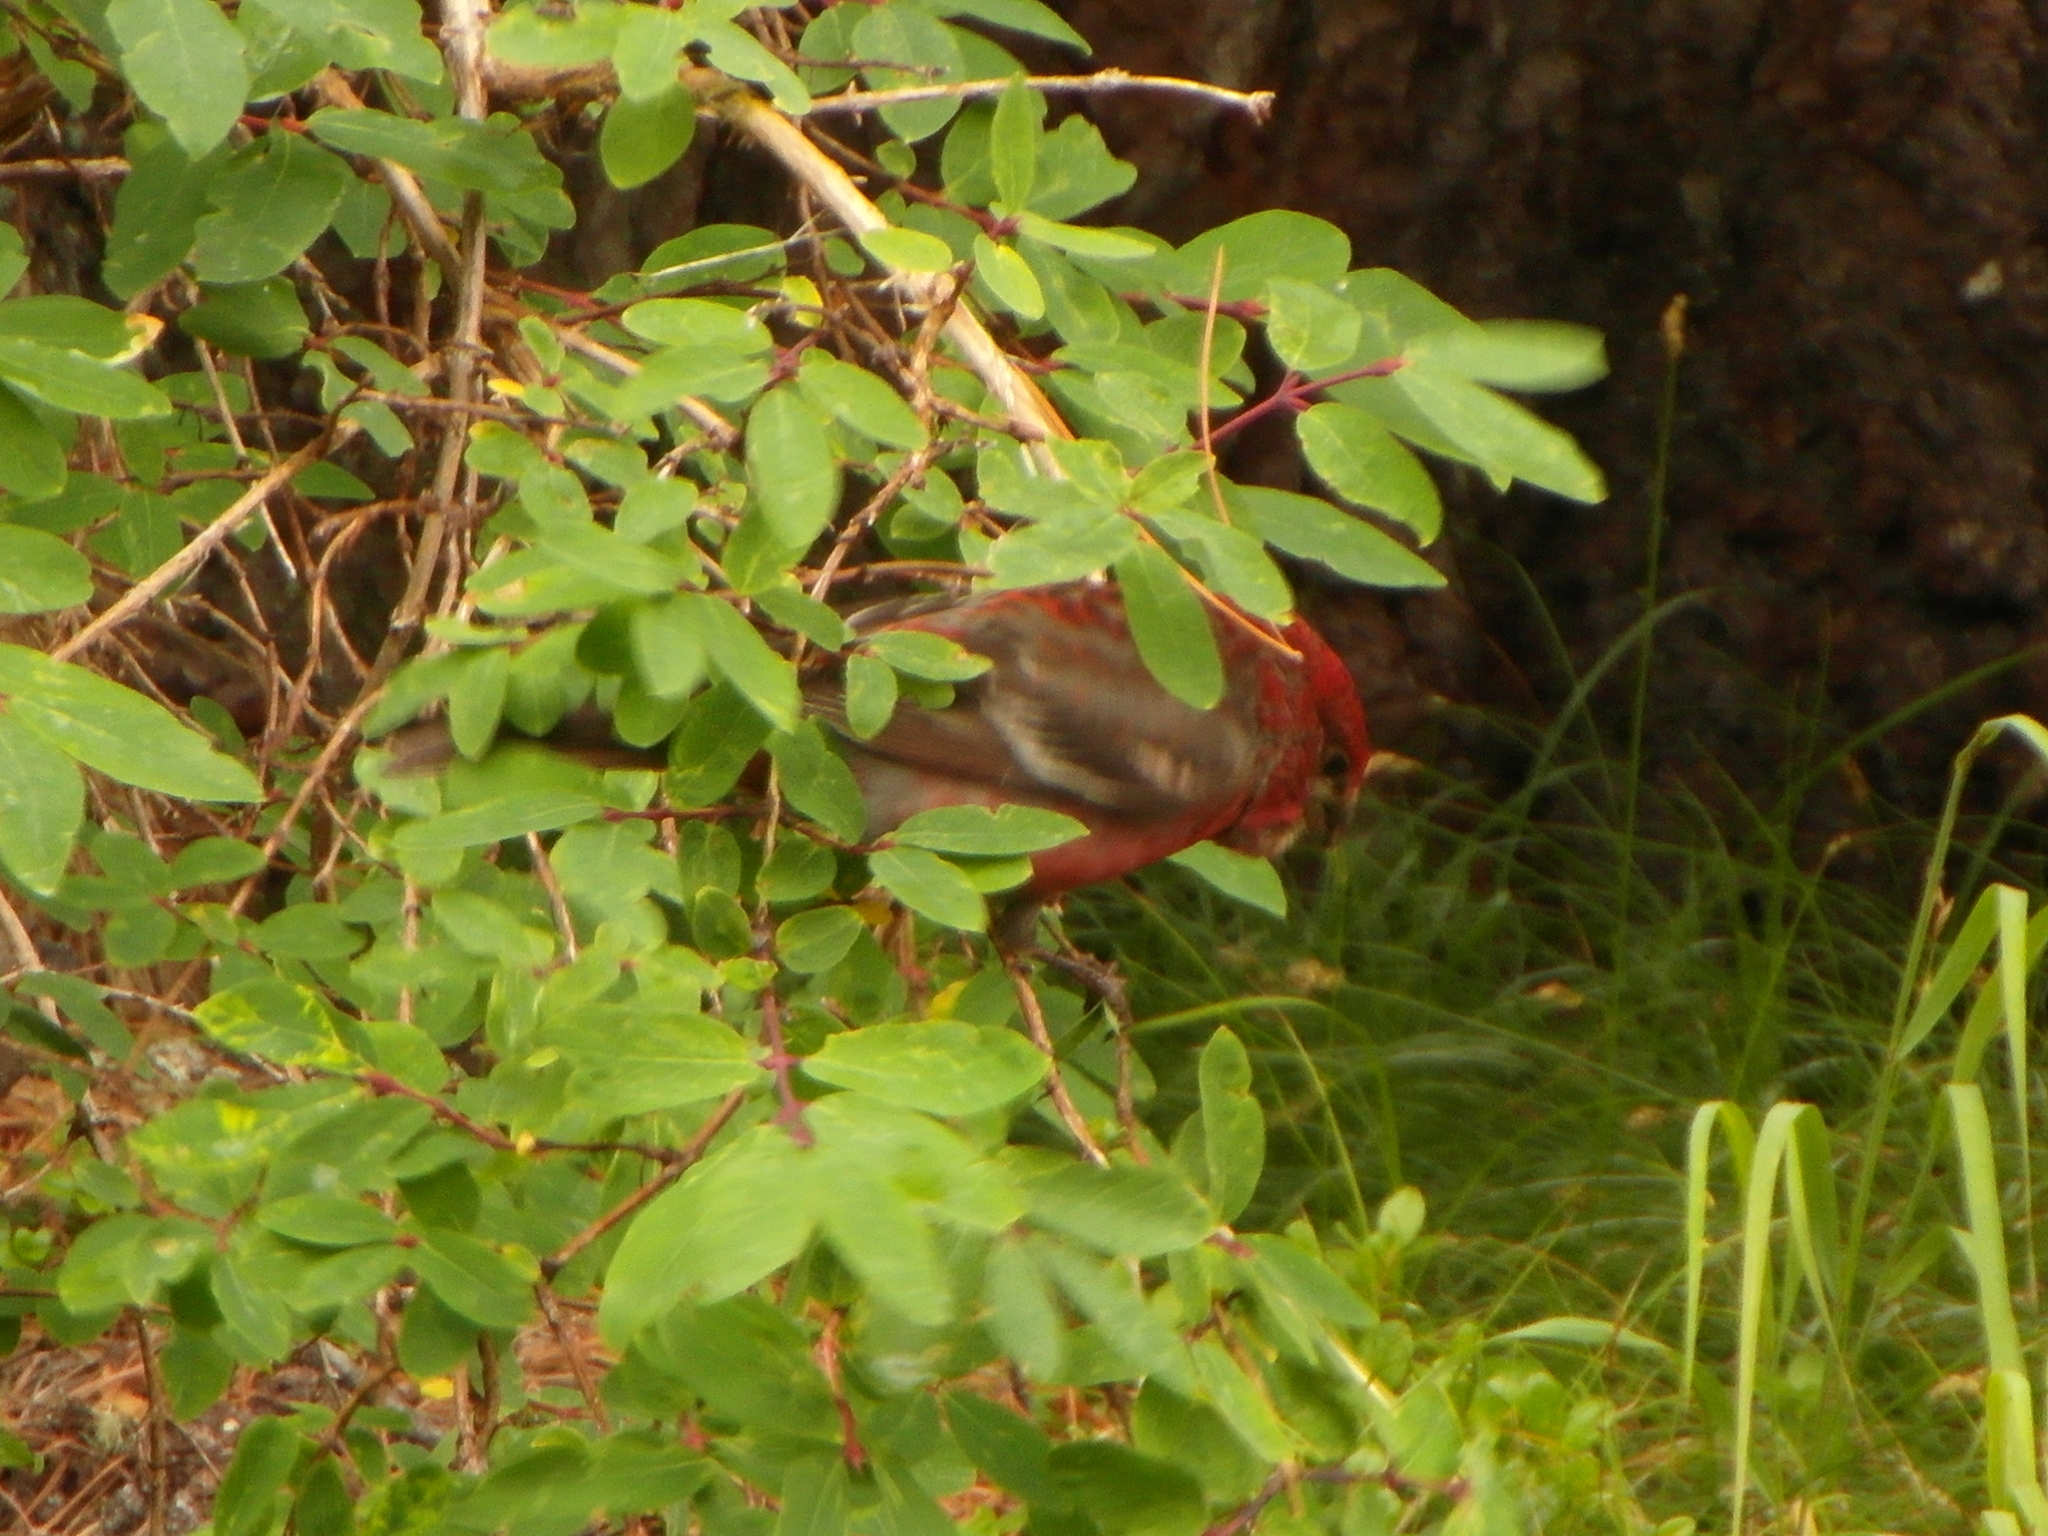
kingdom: Animalia
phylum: Chordata
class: Aves
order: Passeriformes
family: Fringillidae
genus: Pinicola
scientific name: Pinicola enucleator
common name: Pine grosbeak
